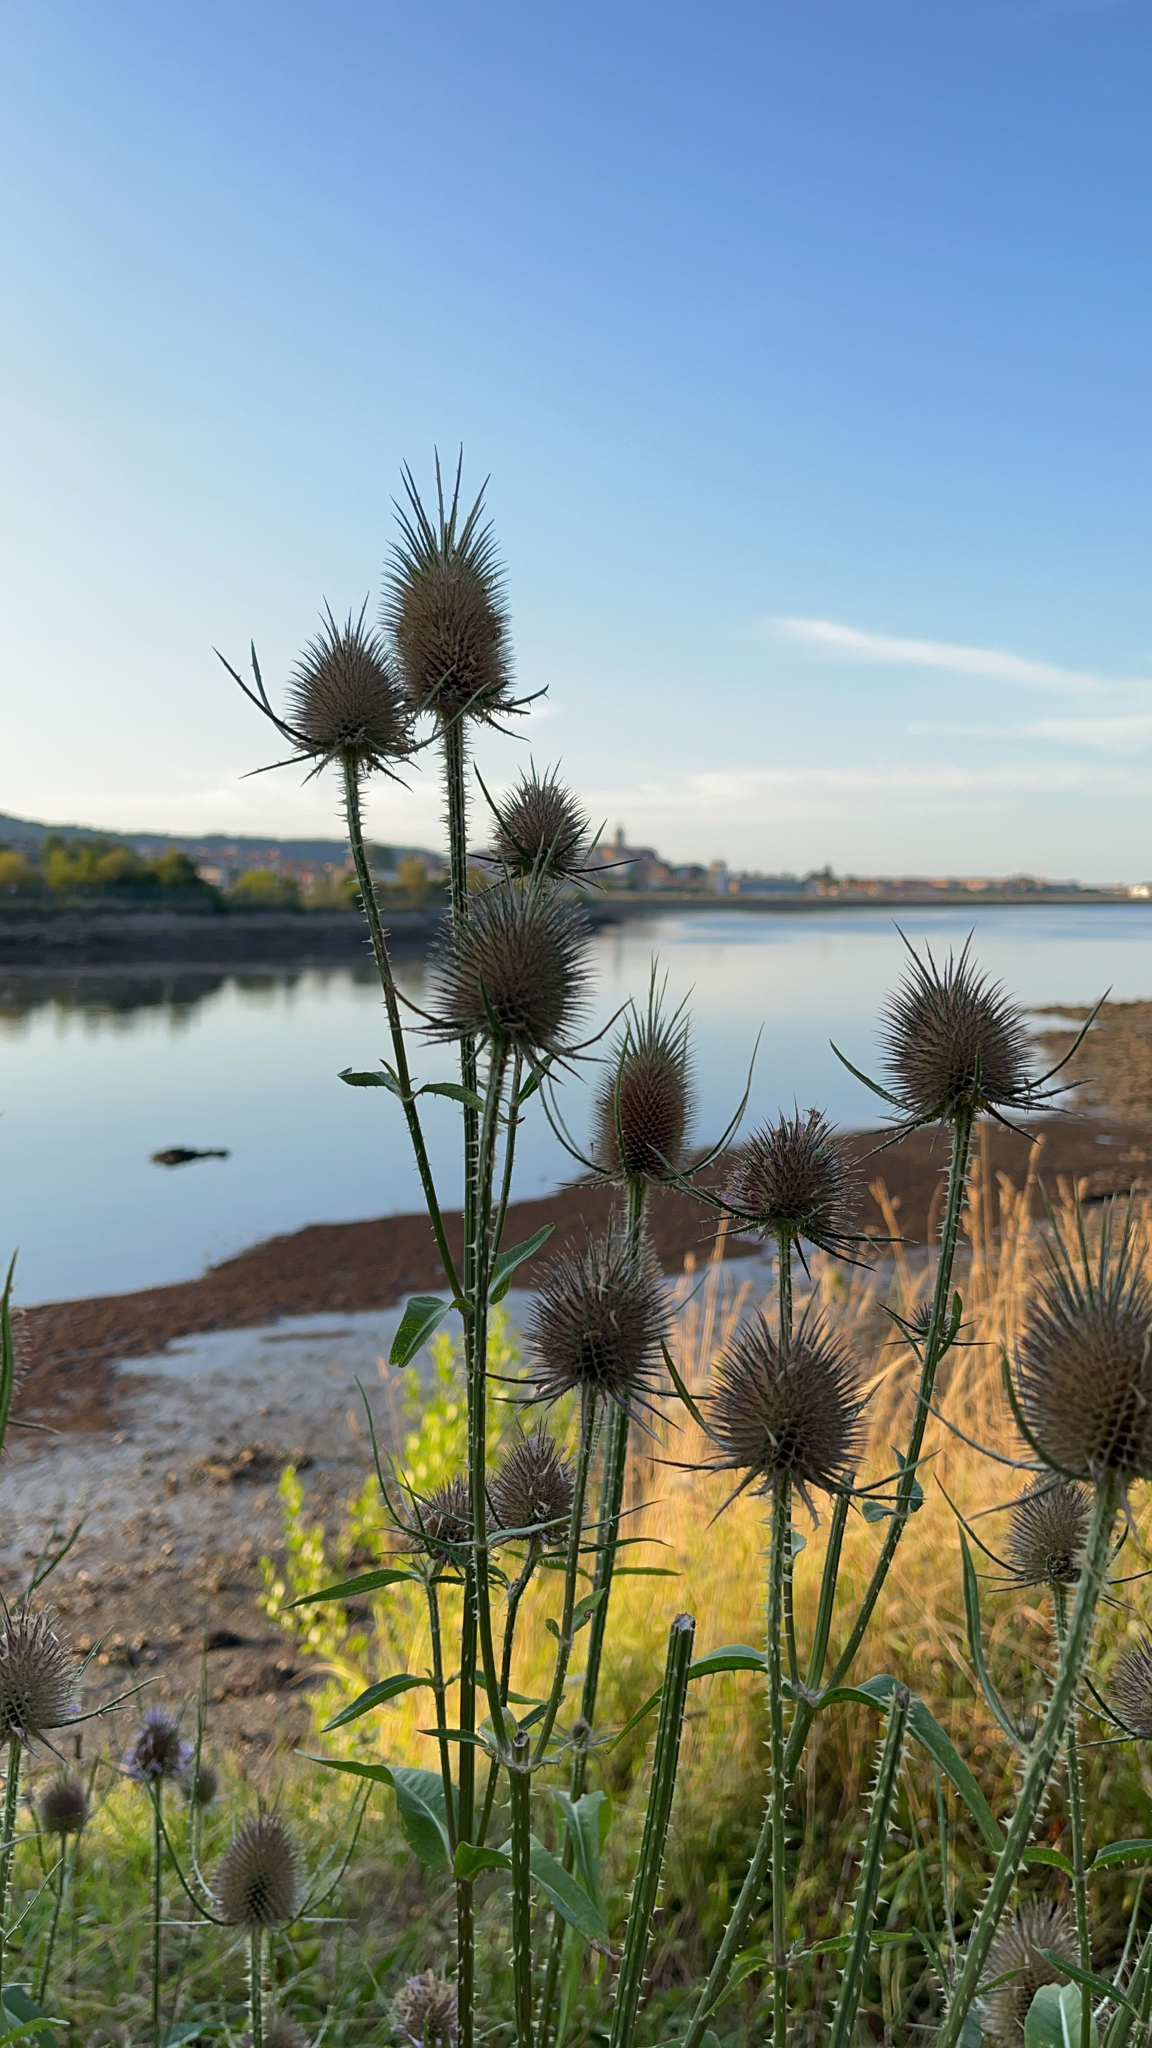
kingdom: Plantae
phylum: Tracheophyta
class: Magnoliopsida
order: Dipsacales
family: Caprifoliaceae
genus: Dipsacus
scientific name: Dipsacus fullonum
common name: Teasel
